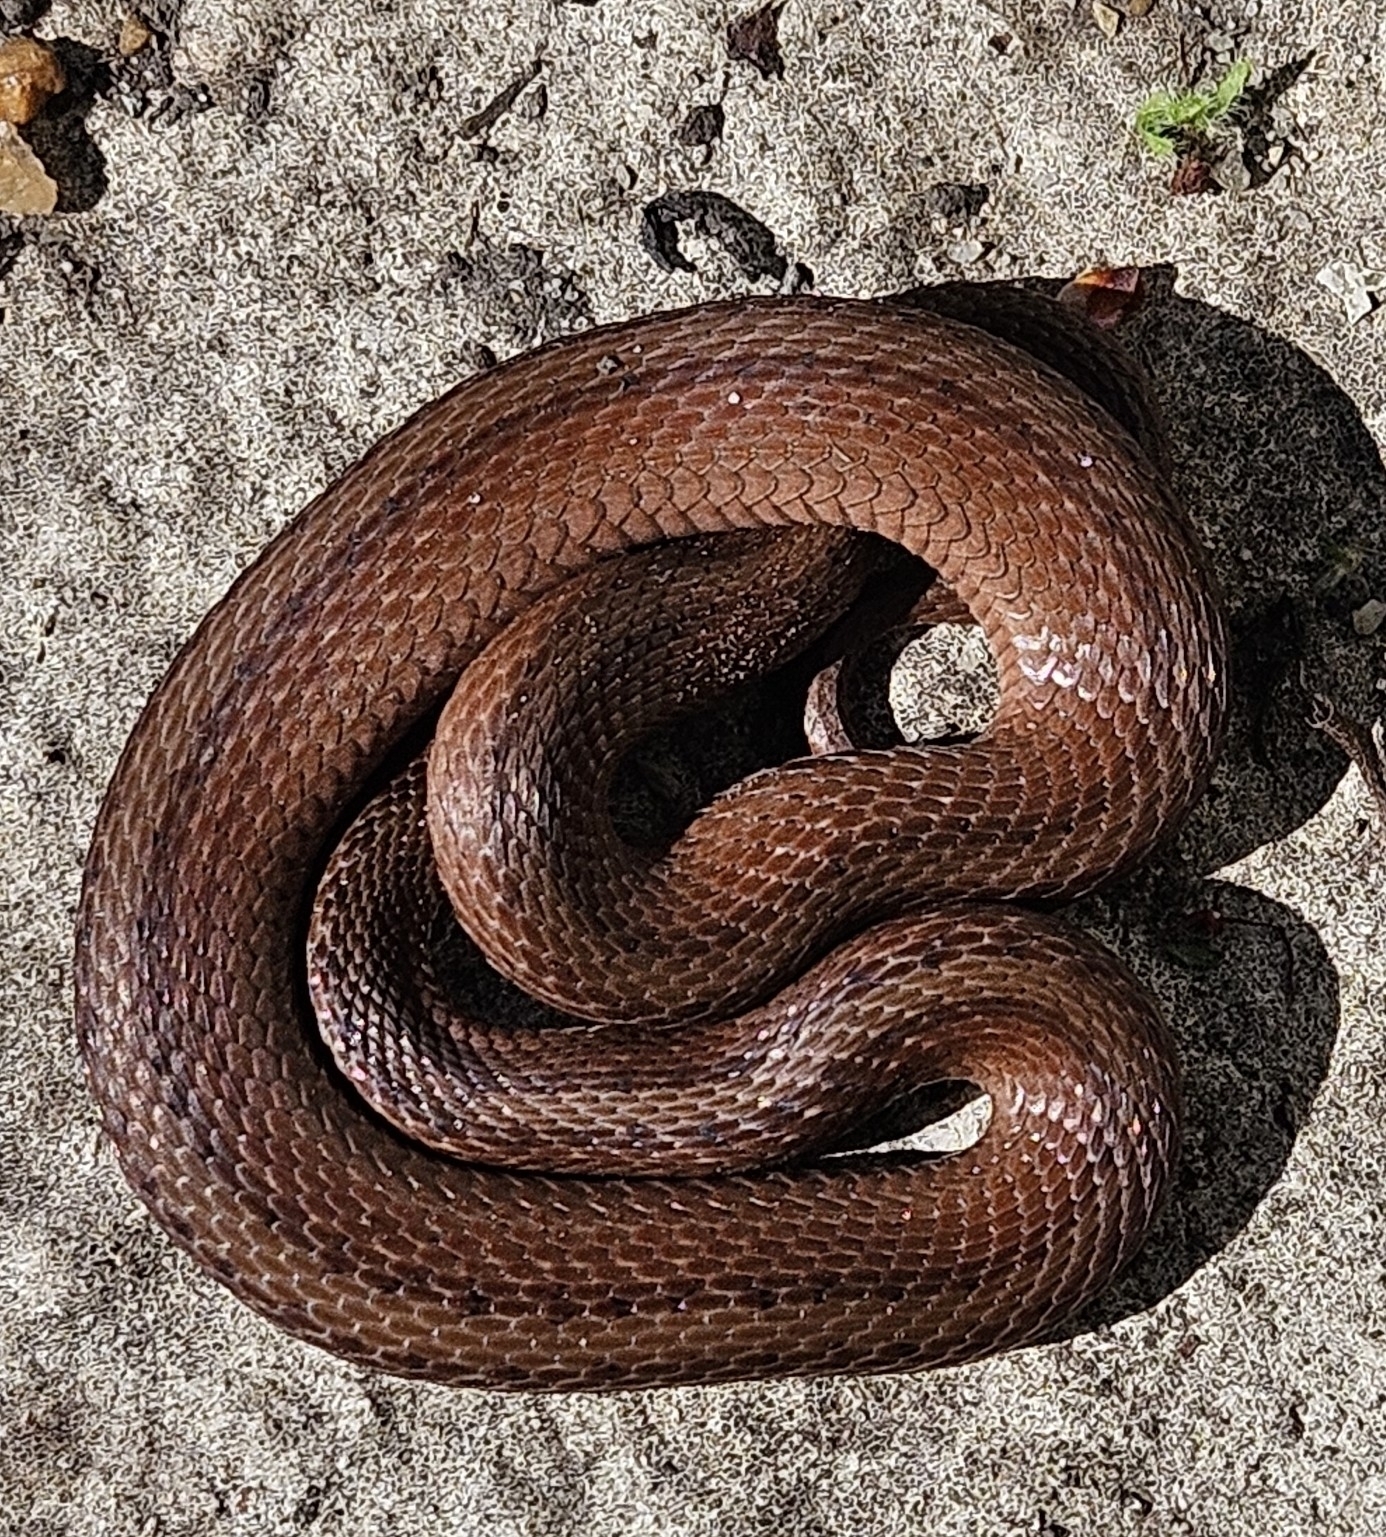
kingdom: Animalia
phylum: Chordata
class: Squamata
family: Colubridae
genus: Storeria
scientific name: Storeria dekayi
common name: (dekay’s) brown snake
